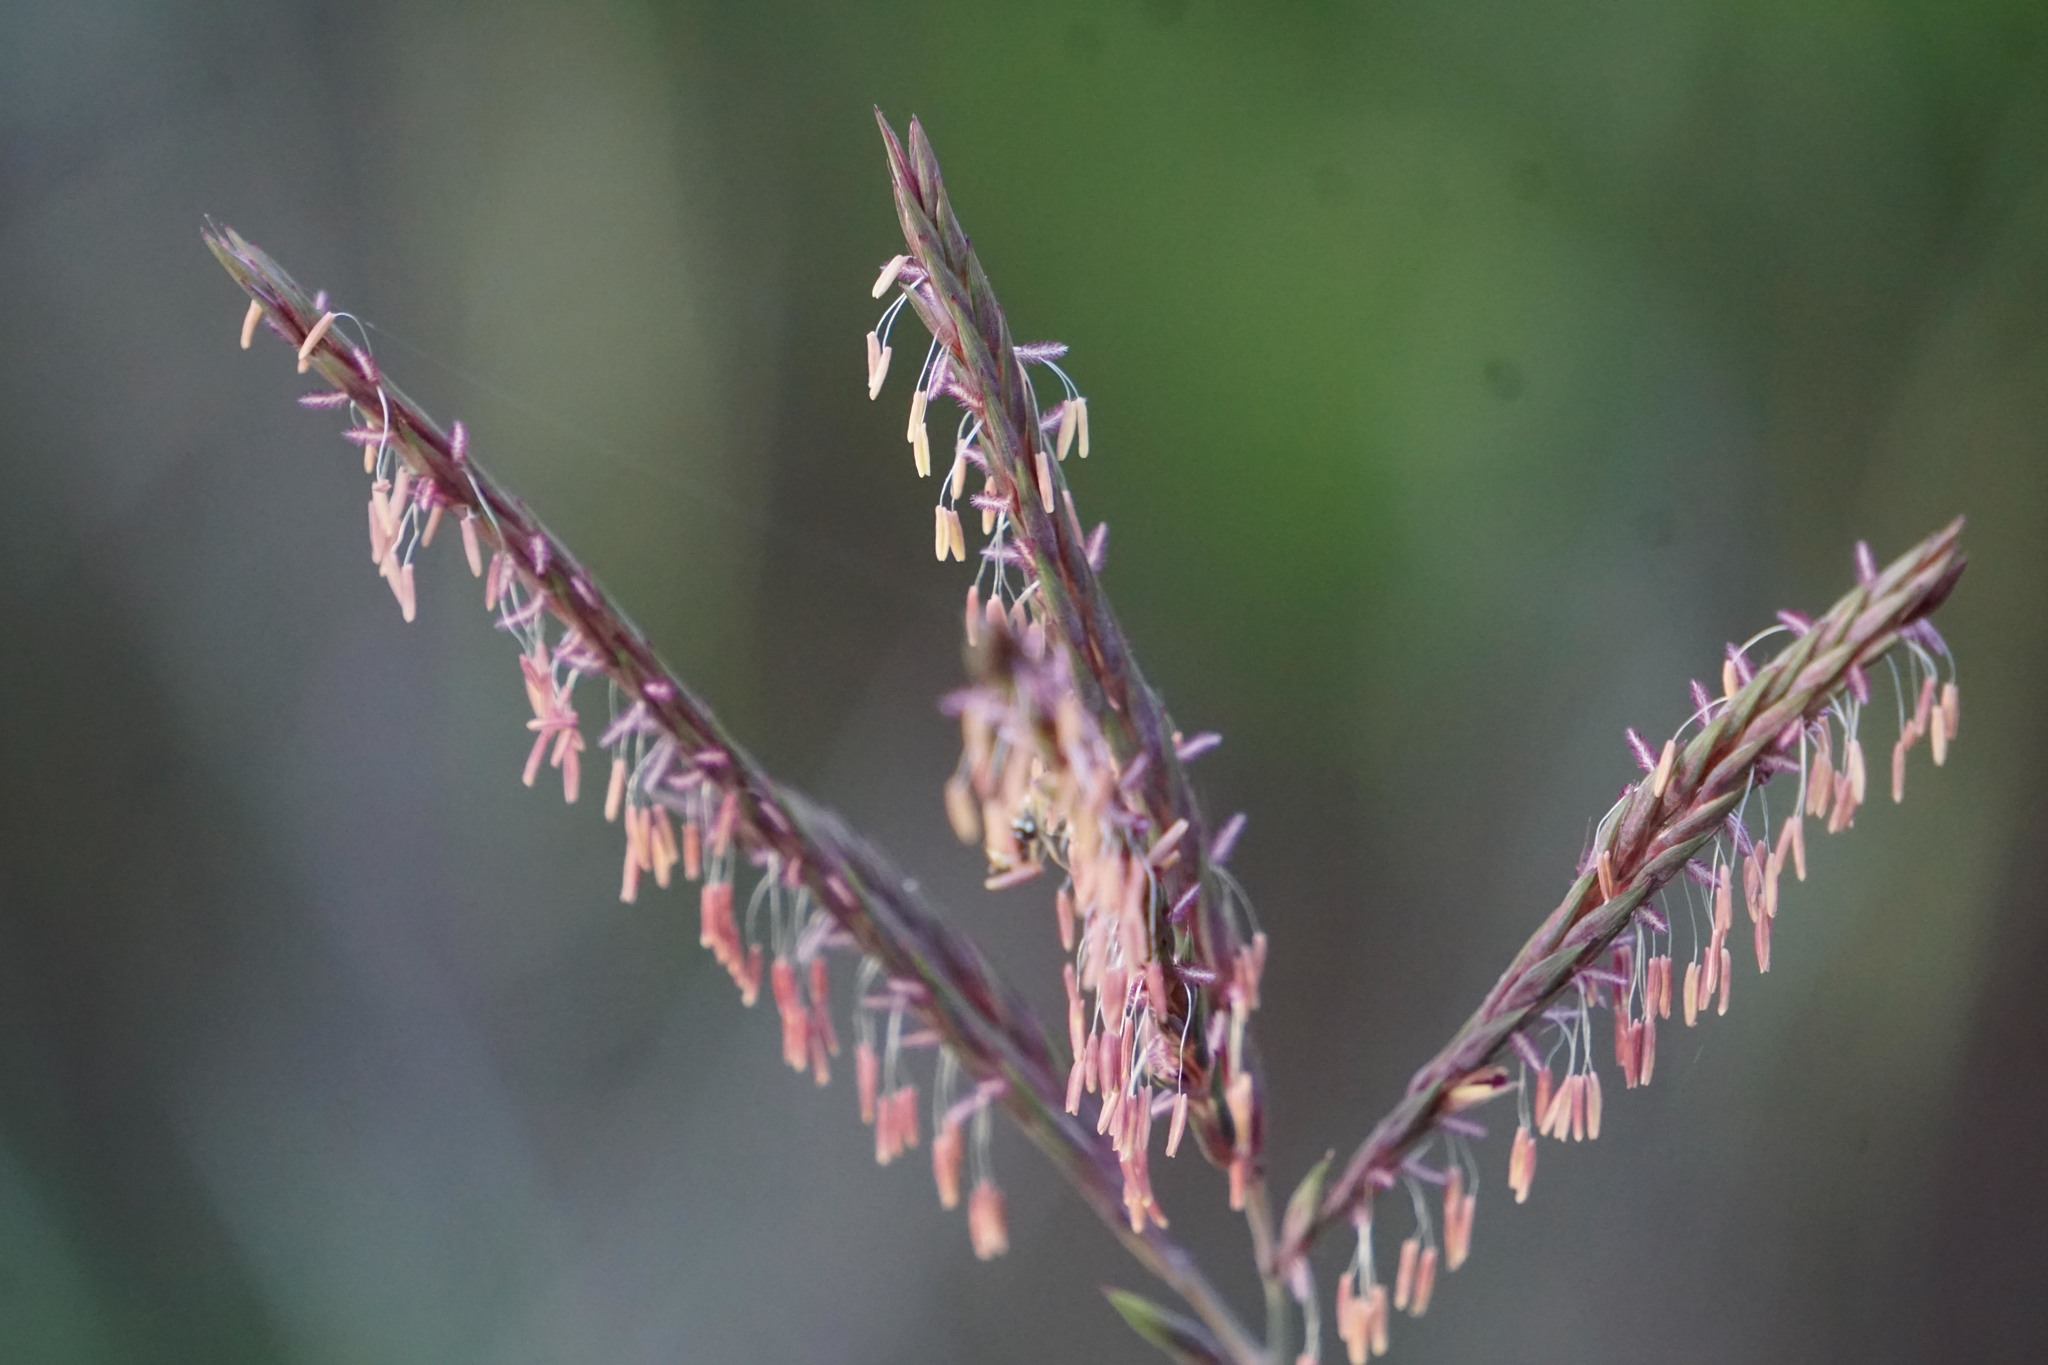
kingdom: Plantae
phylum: Tracheophyta
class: Liliopsida
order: Poales
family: Poaceae
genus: Andropogon
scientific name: Andropogon gerardi
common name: Big bluestem
